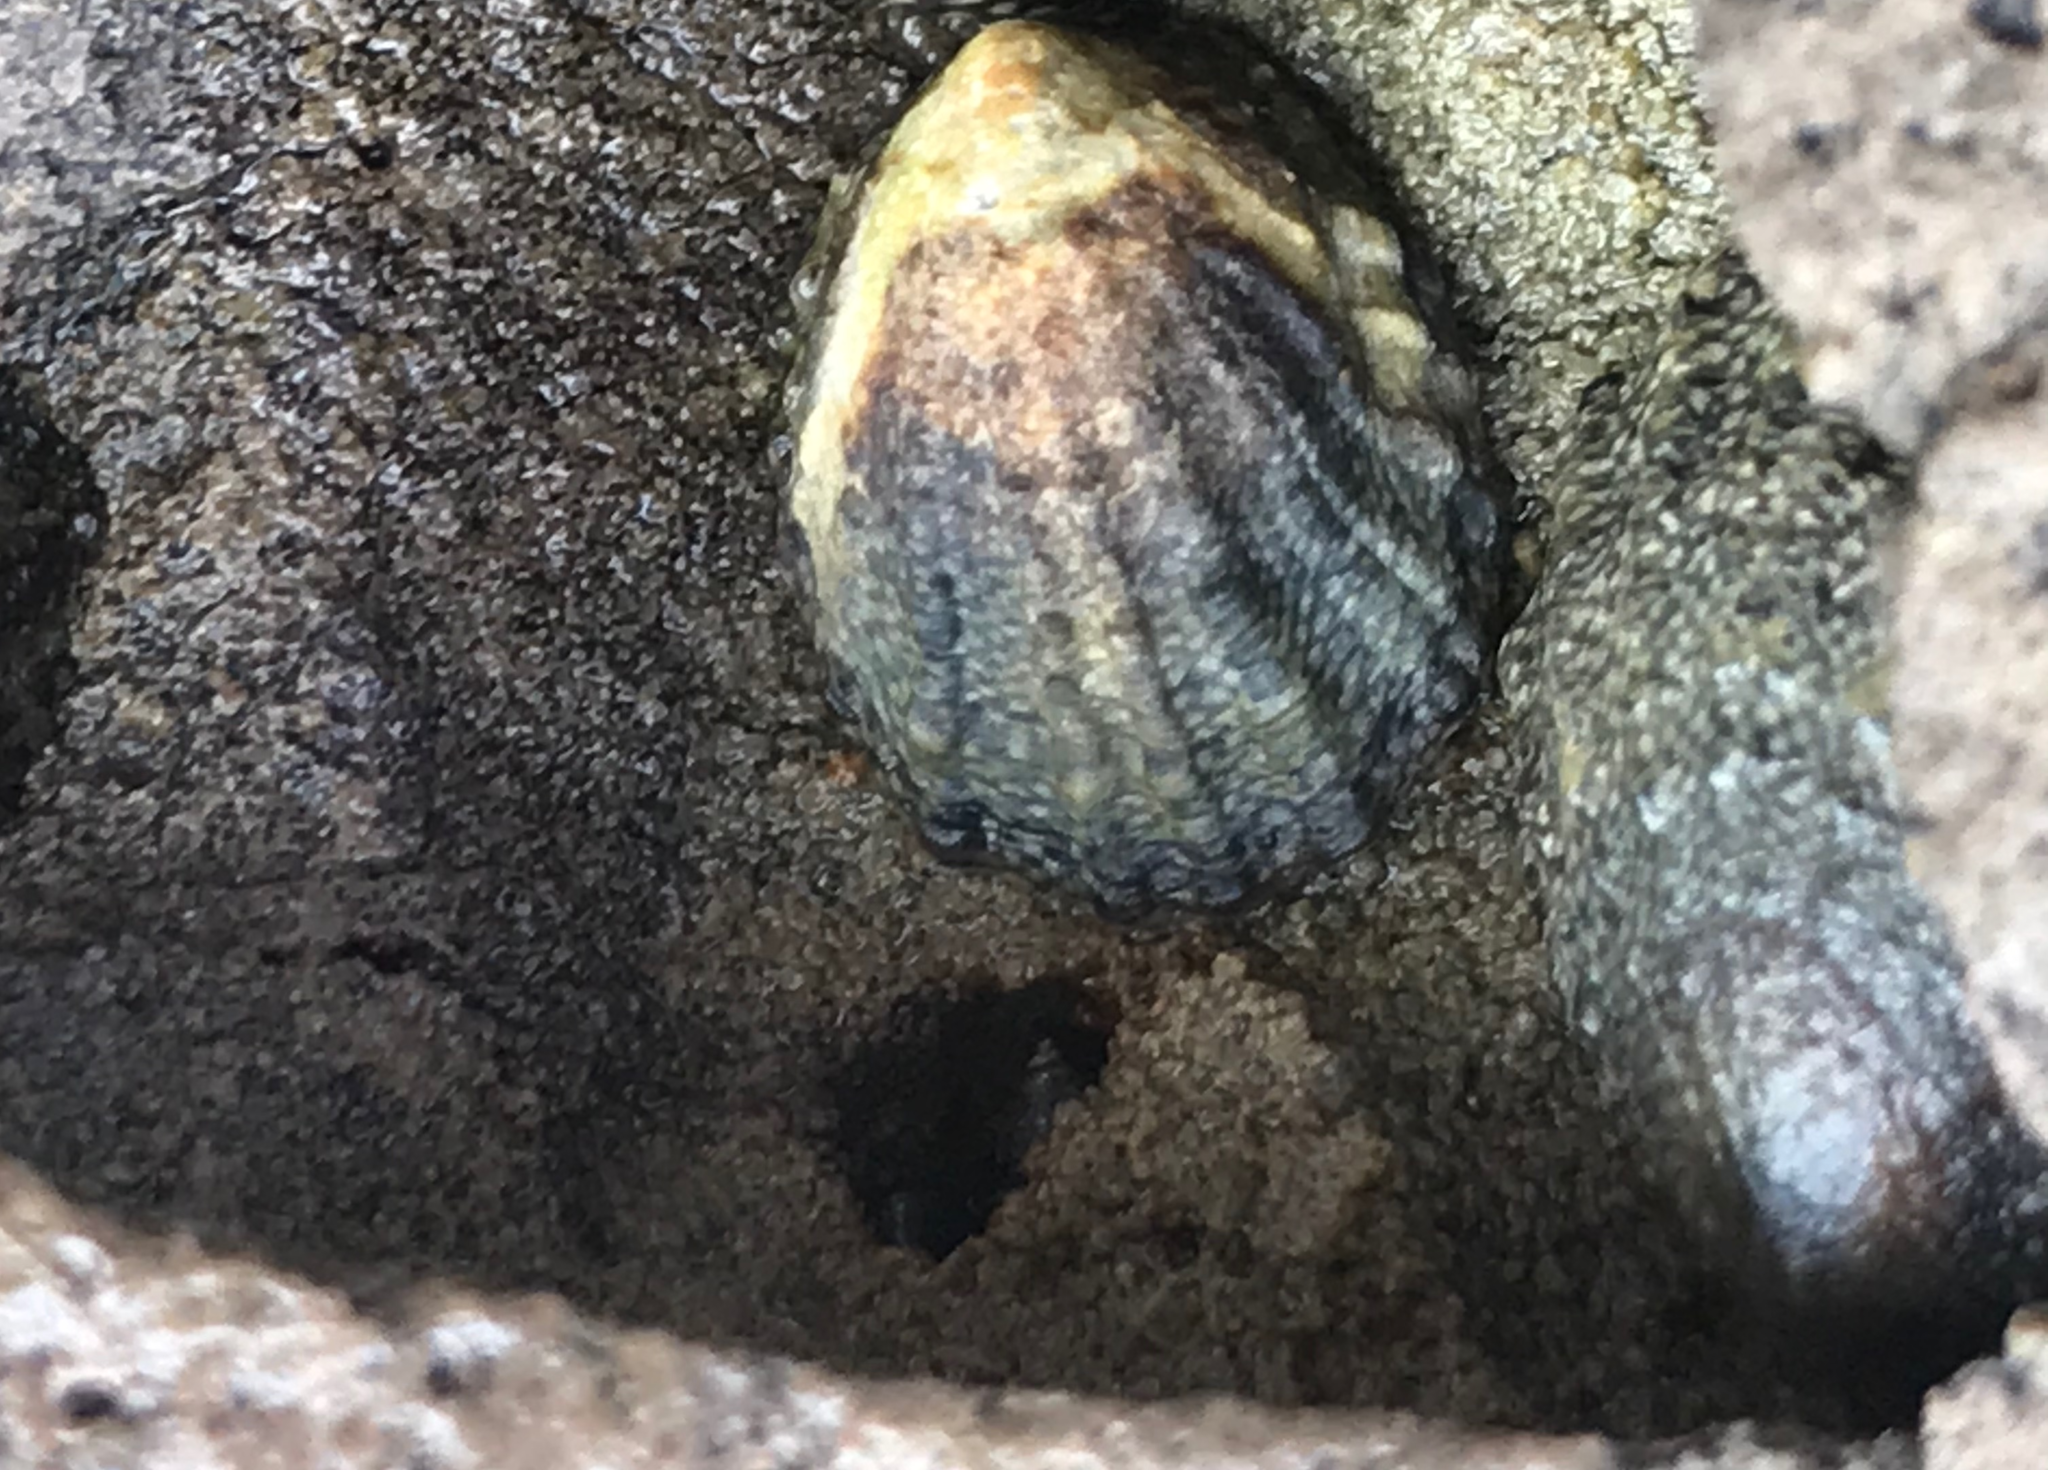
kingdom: Animalia
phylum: Mollusca
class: Gastropoda
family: Lottiidae
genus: Lottia
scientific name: Lottia austrodigitalis
